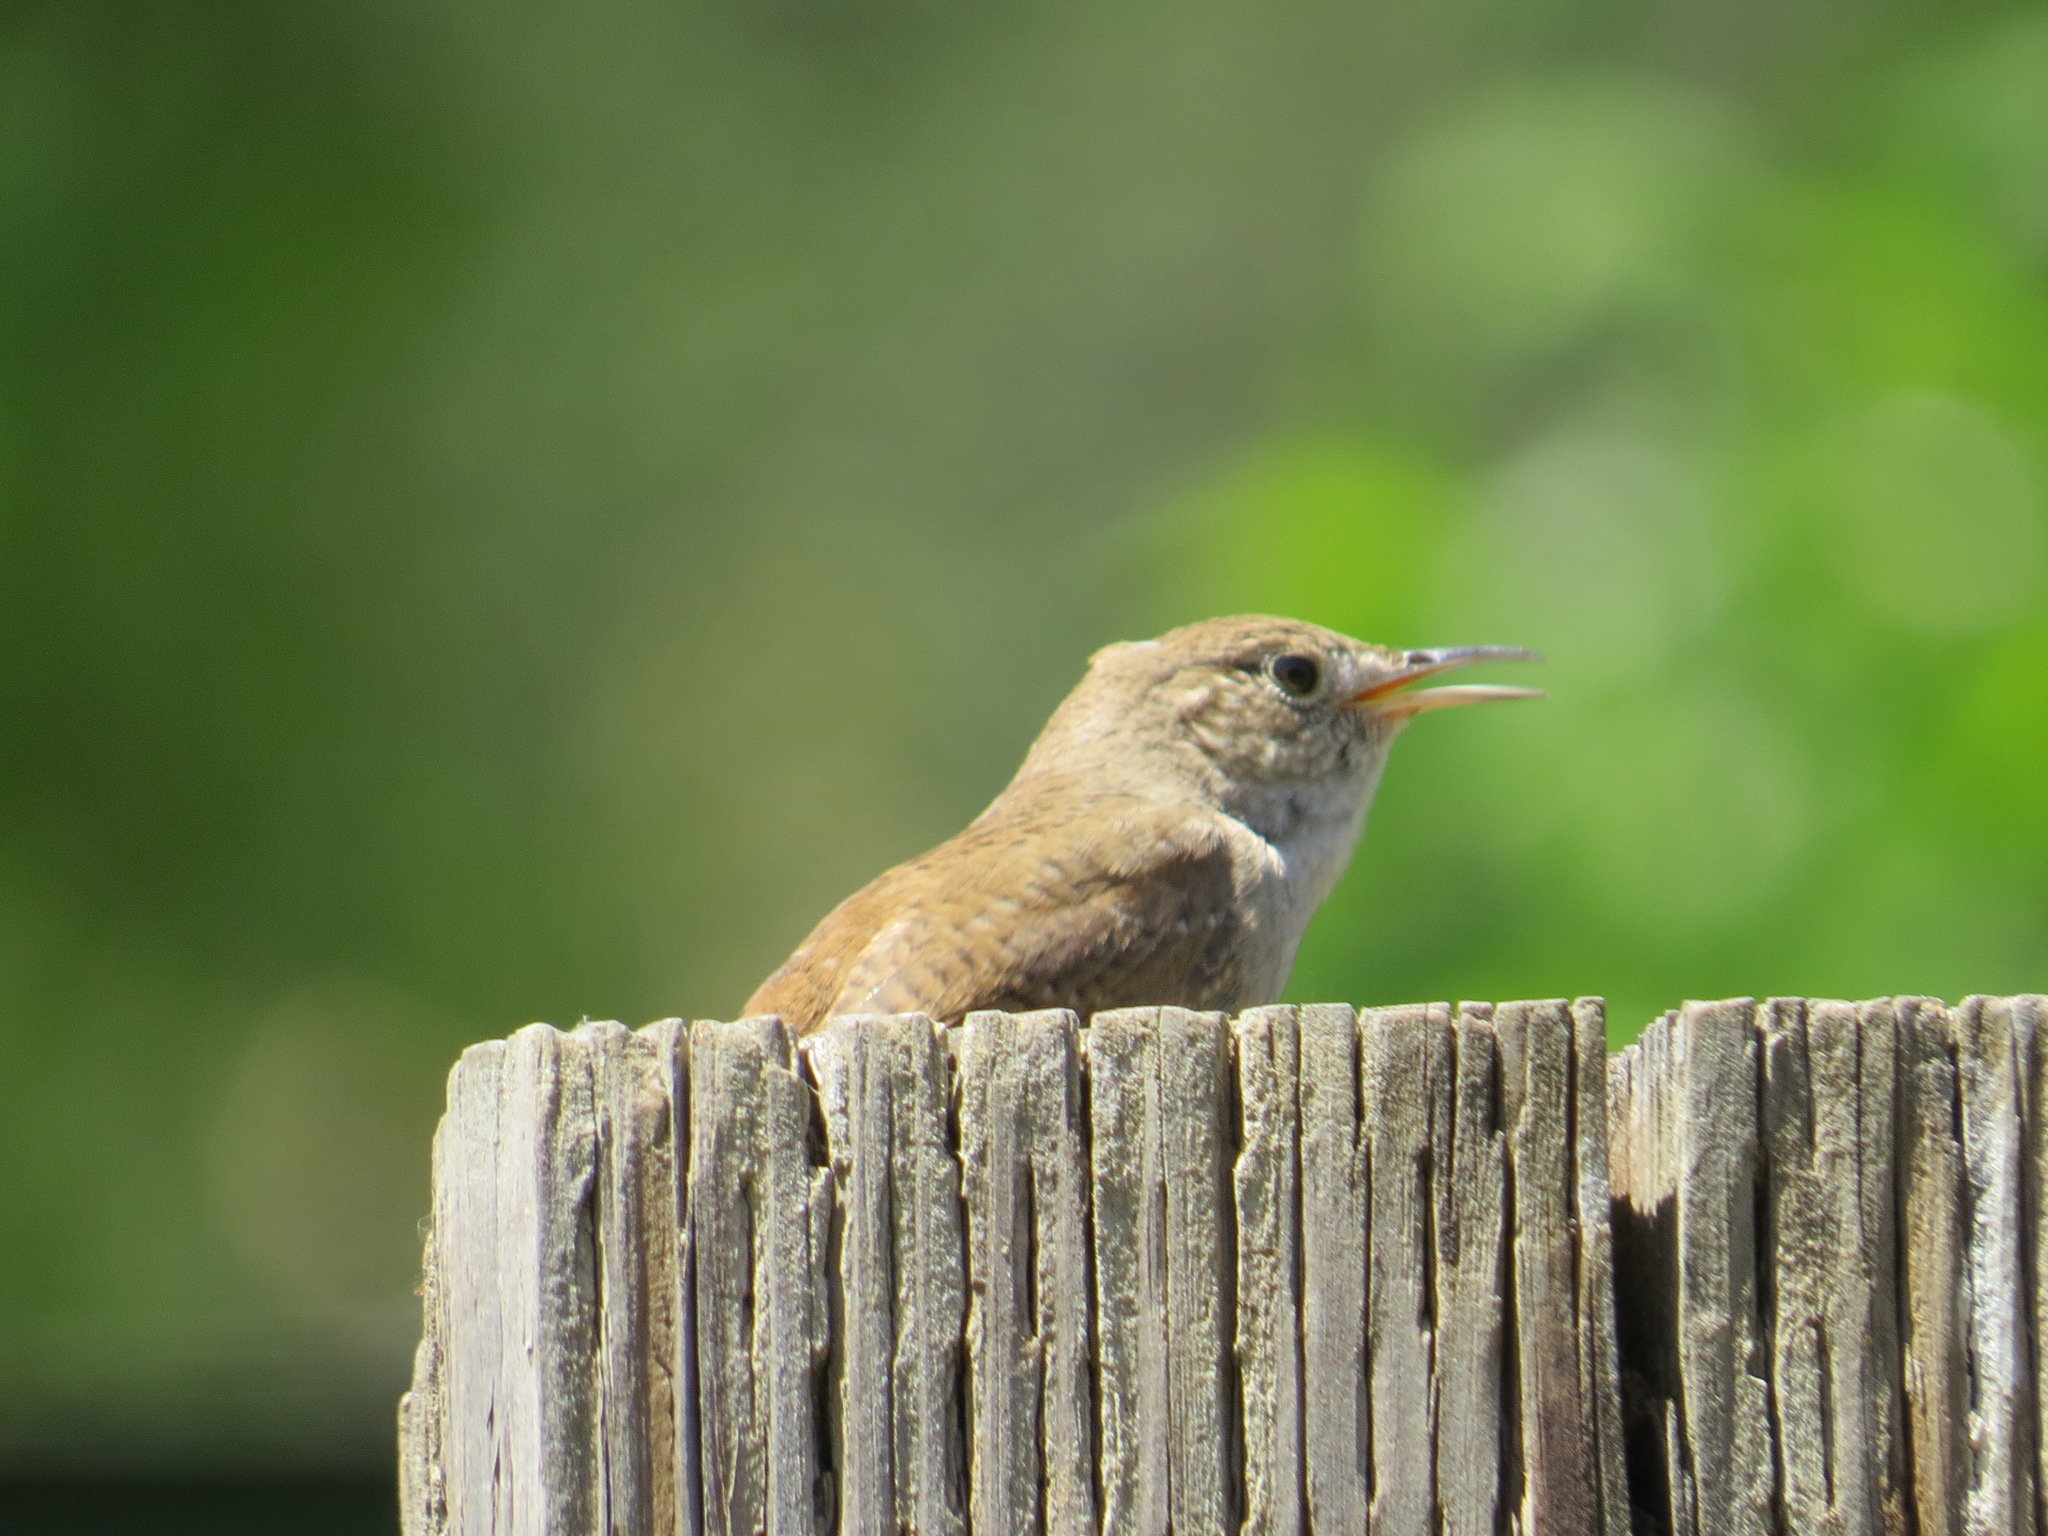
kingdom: Animalia
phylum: Chordata
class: Aves
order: Passeriformes
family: Troglodytidae
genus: Troglodytes
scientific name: Troglodytes aedon
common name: House wren
